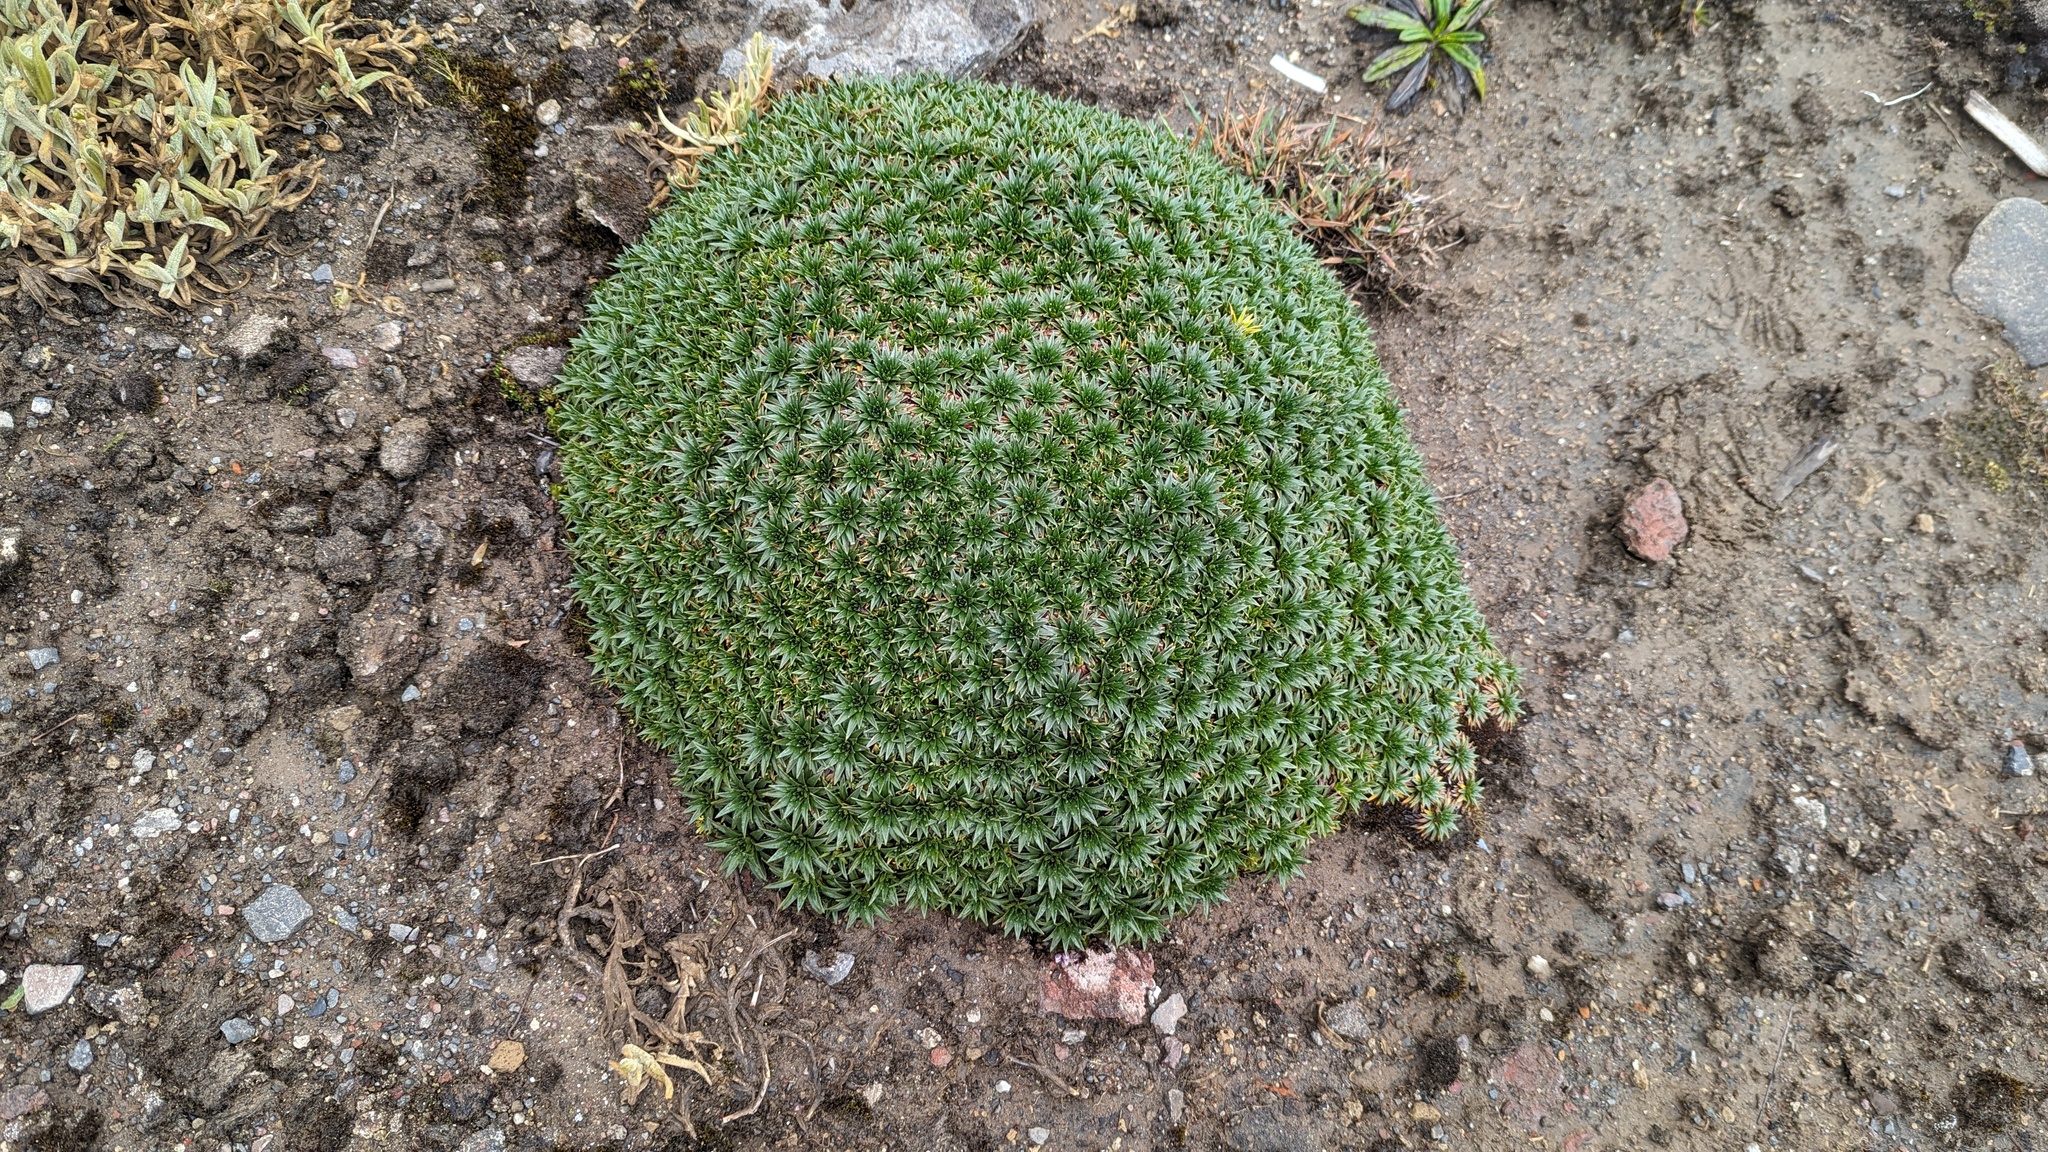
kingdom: Plantae
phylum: Tracheophyta
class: Magnoliopsida
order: Lamiales
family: Plantaginaceae
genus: Plantago
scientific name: Plantago rigida
